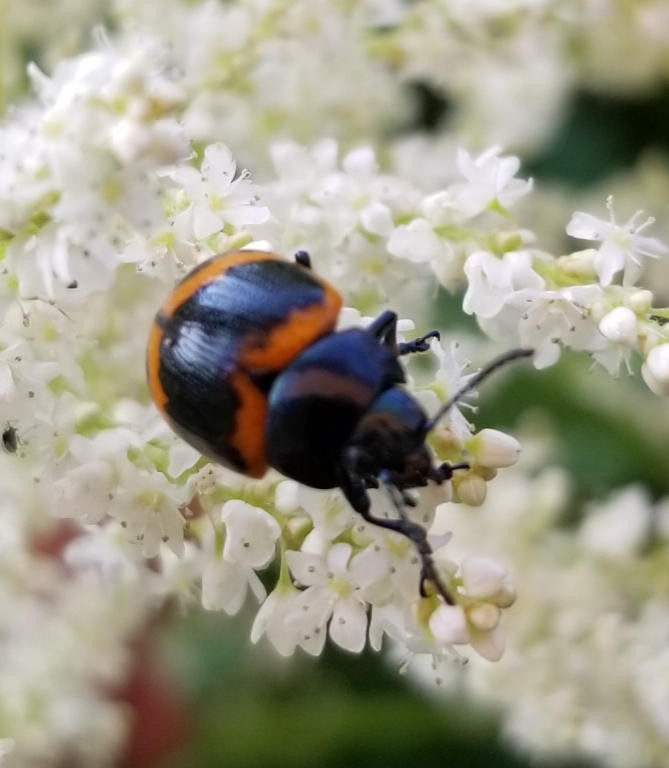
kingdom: Animalia
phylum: Arthropoda
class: Insecta
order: Coleoptera
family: Chrysomelidae
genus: Labidomera
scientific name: Labidomera clivicollis
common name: Swamp milkweed leaf beetle
